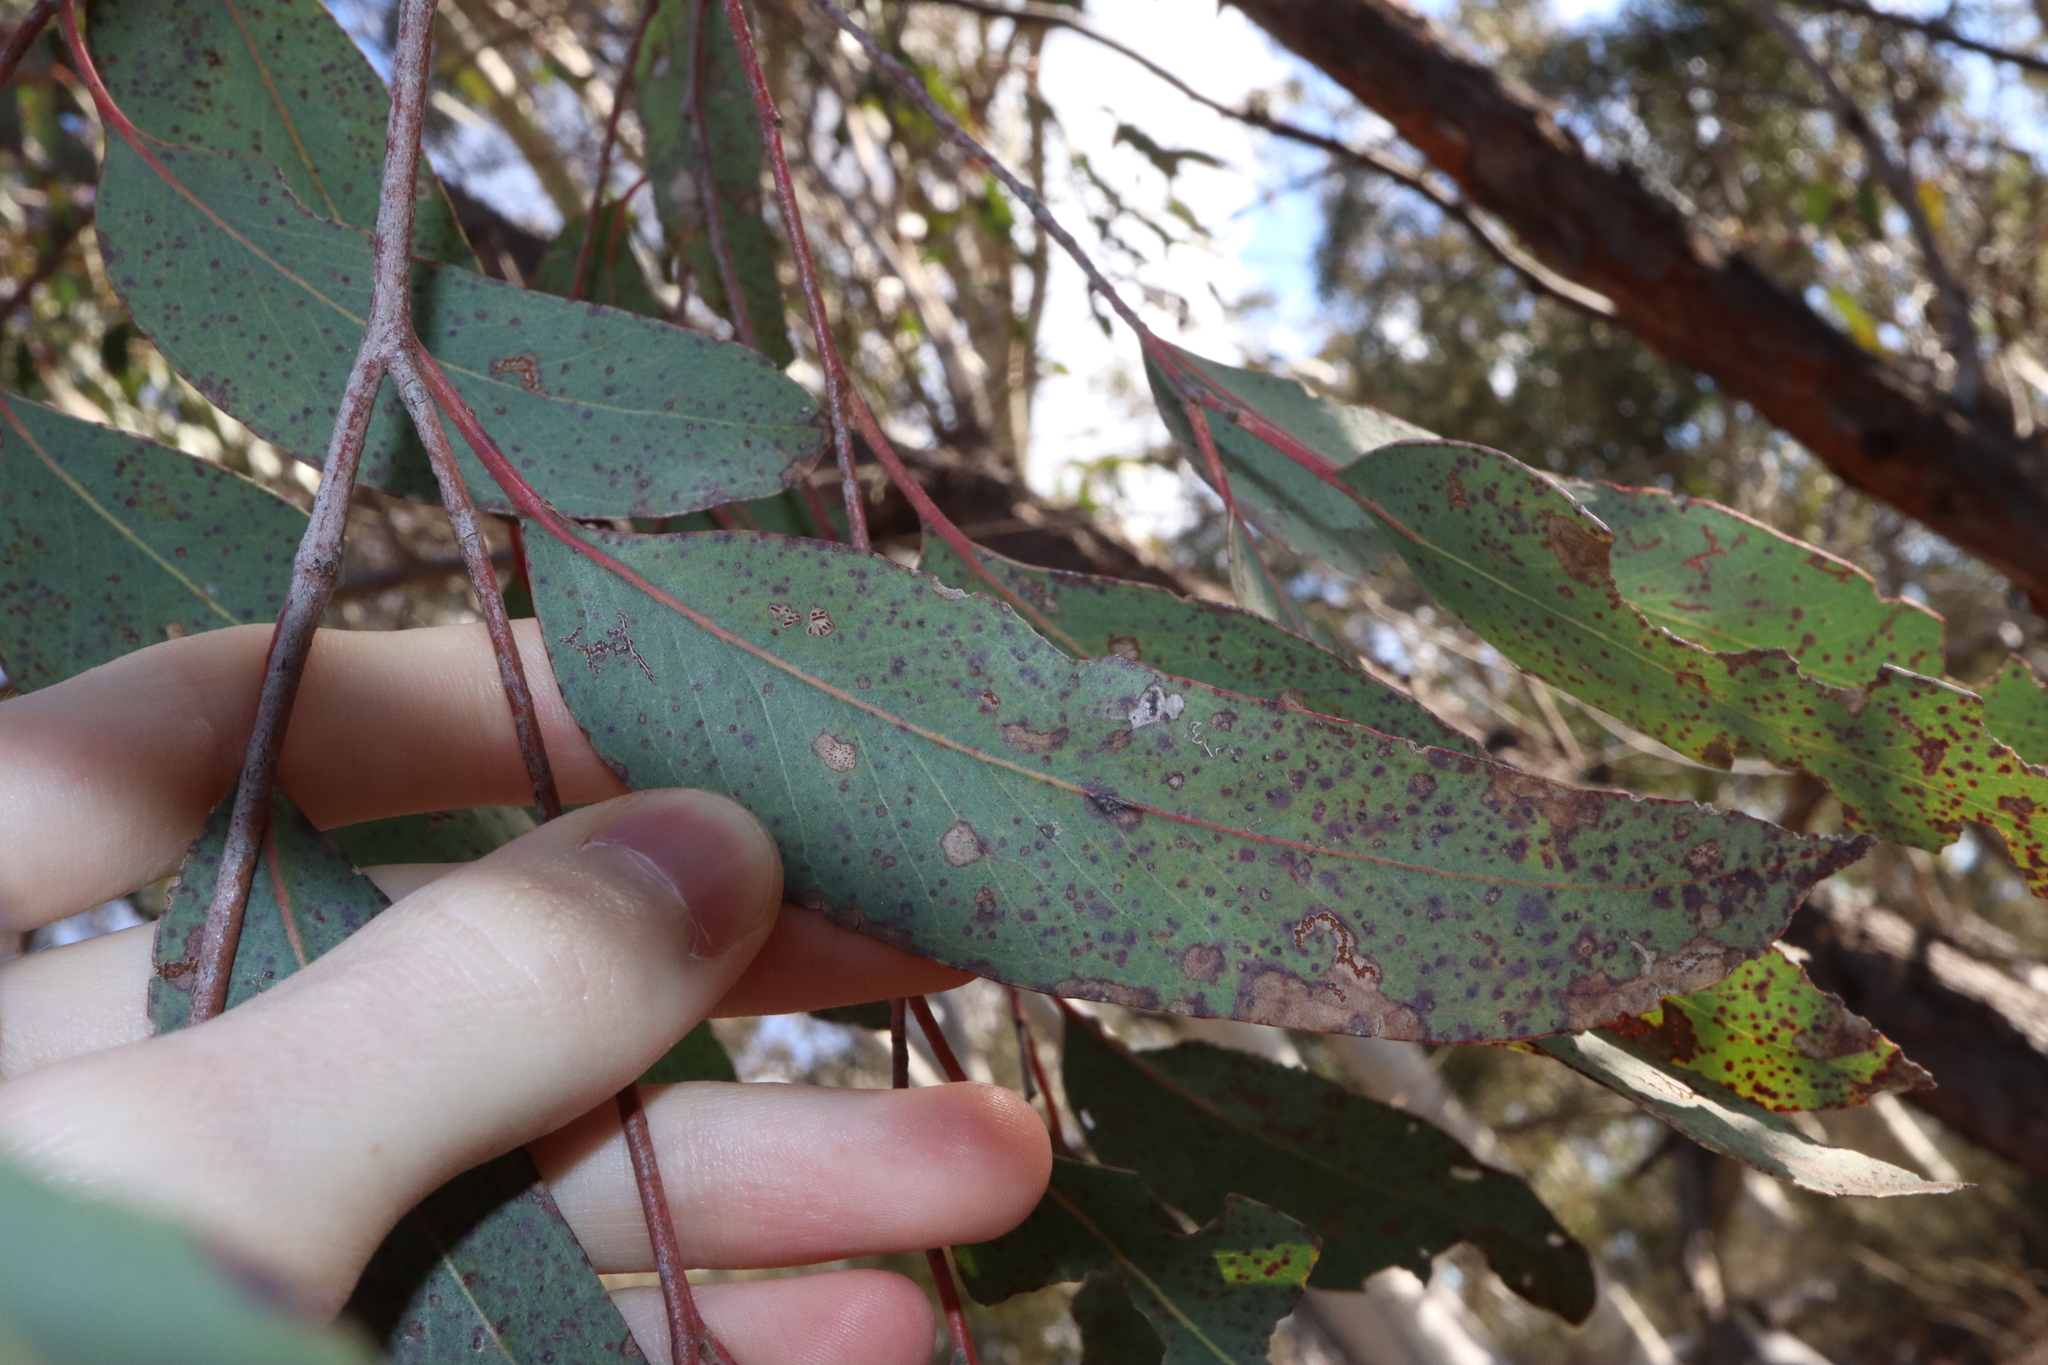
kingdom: Plantae
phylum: Tracheophyta
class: Magnoliopsida
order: Myrtales
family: Myrtaceae
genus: Eucalyptus
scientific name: Eucalyptus macrorhyncha
